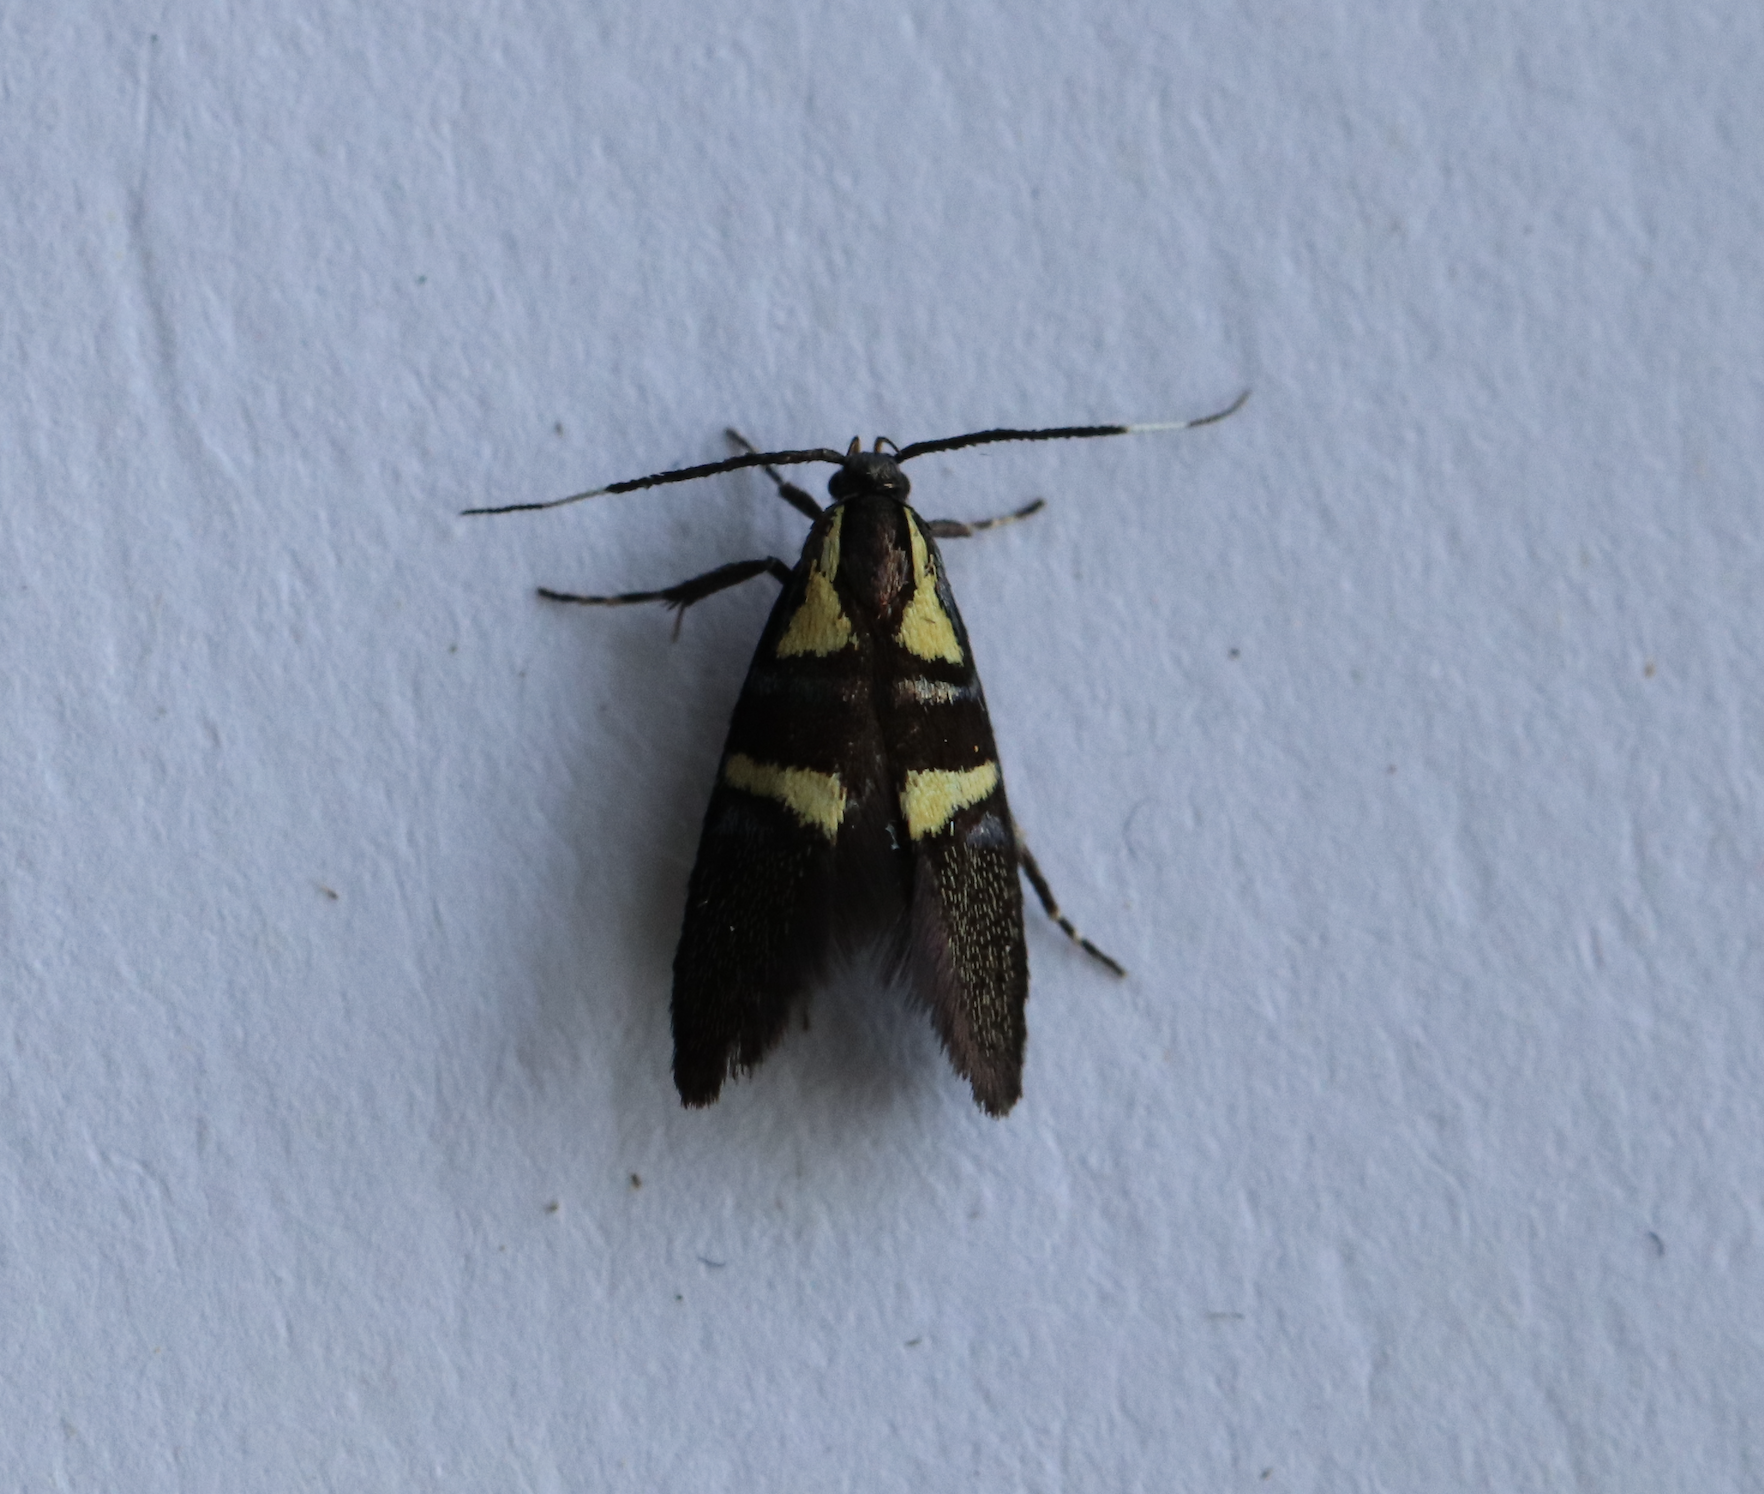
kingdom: Animalia
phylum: Arthropoda
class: Insecta
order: Lepidoptera
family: Oecophoridae
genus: Dafa
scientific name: Dafa oliviella
